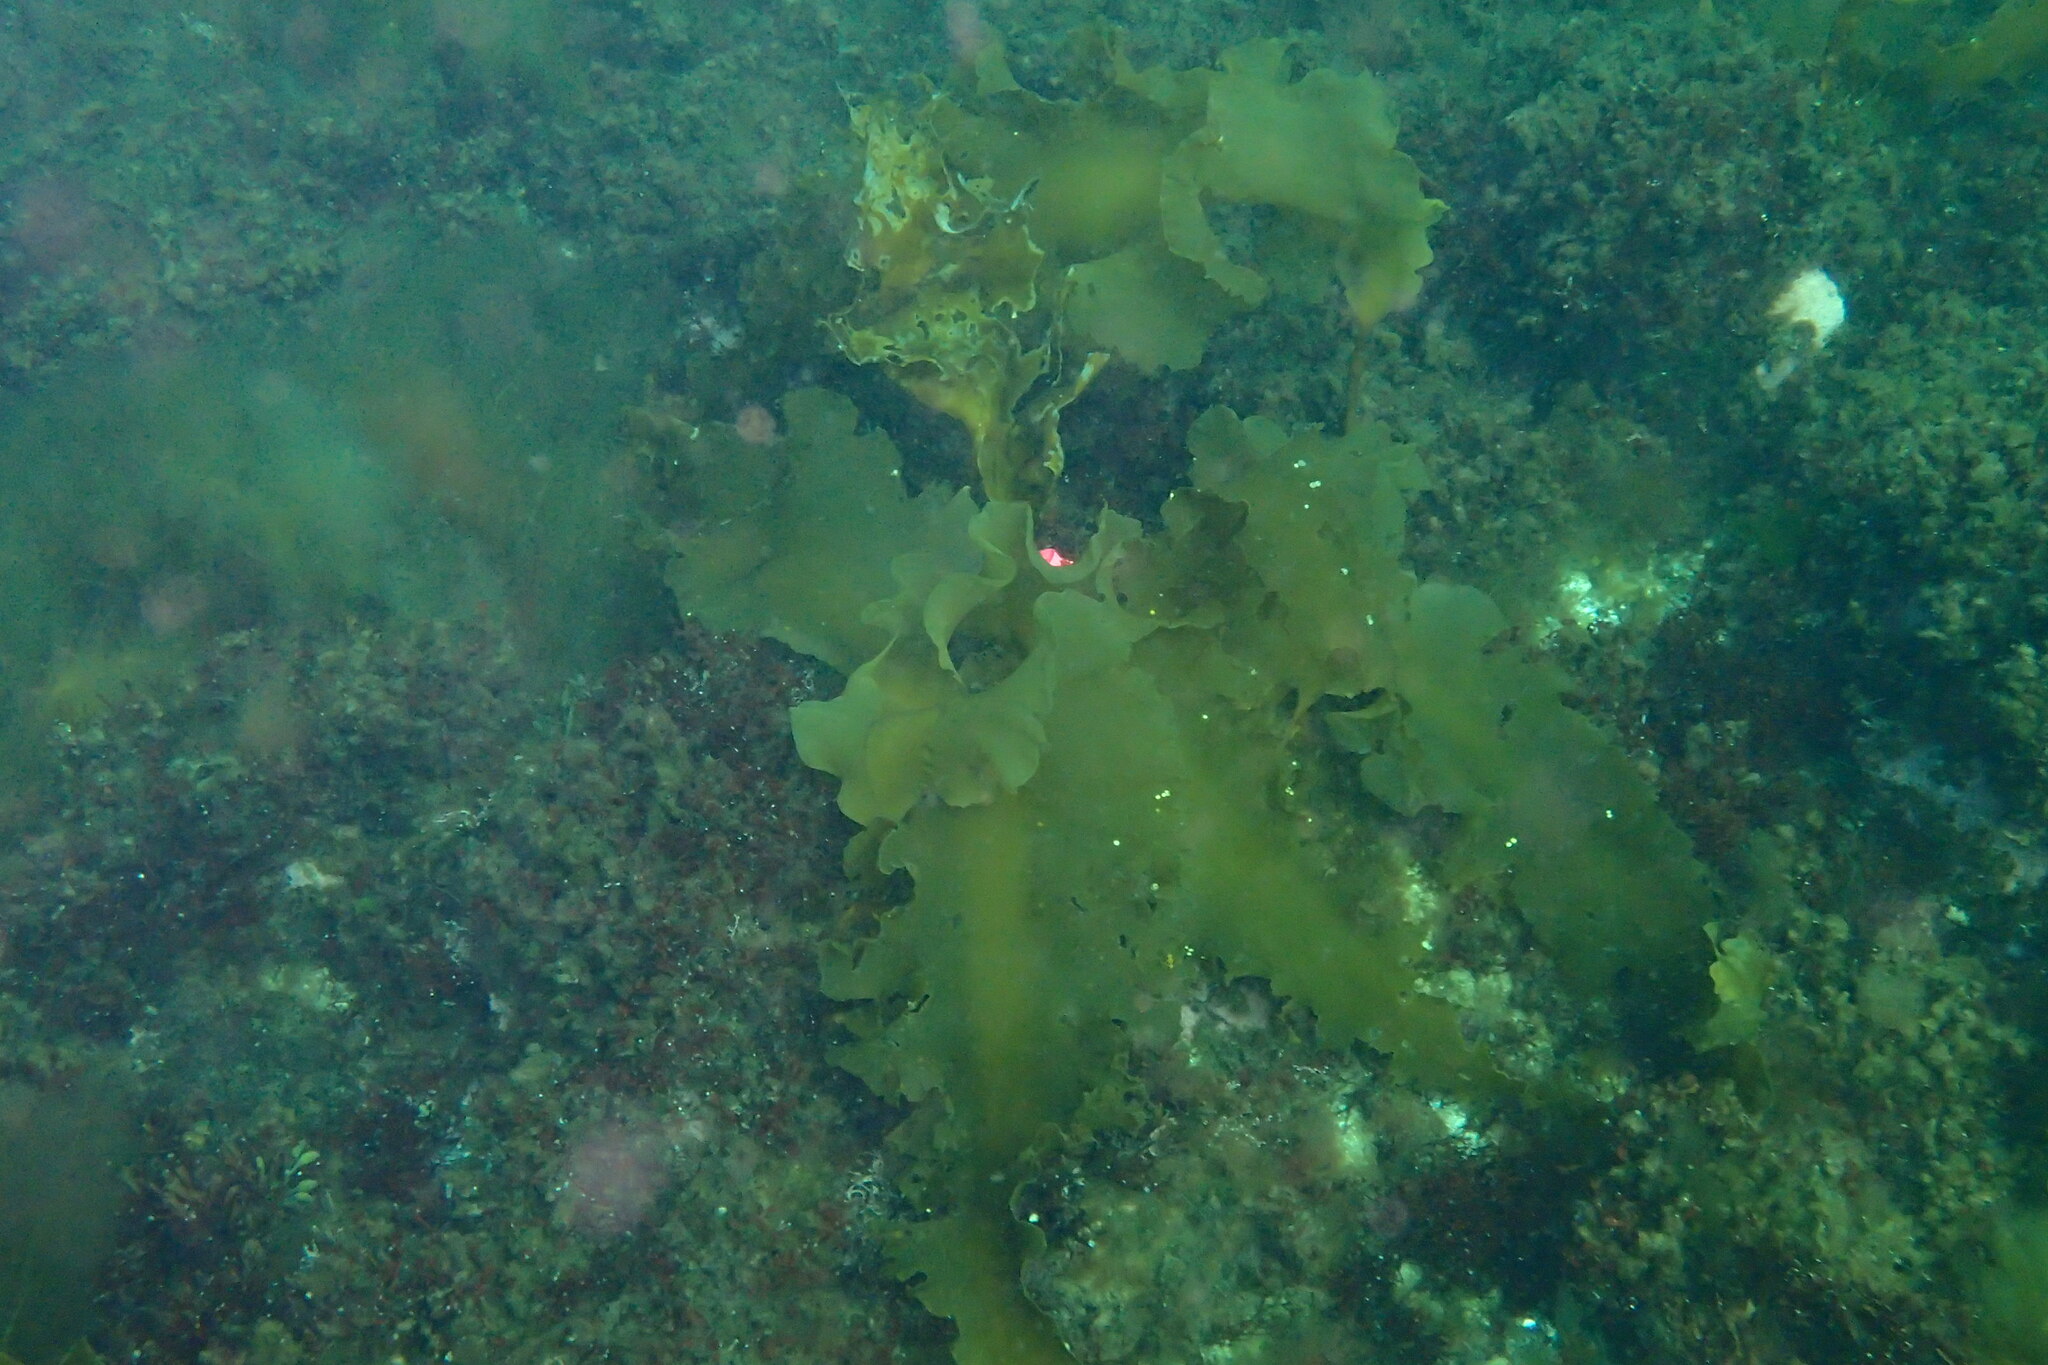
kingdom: Chromista
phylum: Ochrophyta
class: Phaeophyceae
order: Laminariales
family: Laminariaceae
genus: Saccharina
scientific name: Saccharina latissima
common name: Poor man's weather glass
